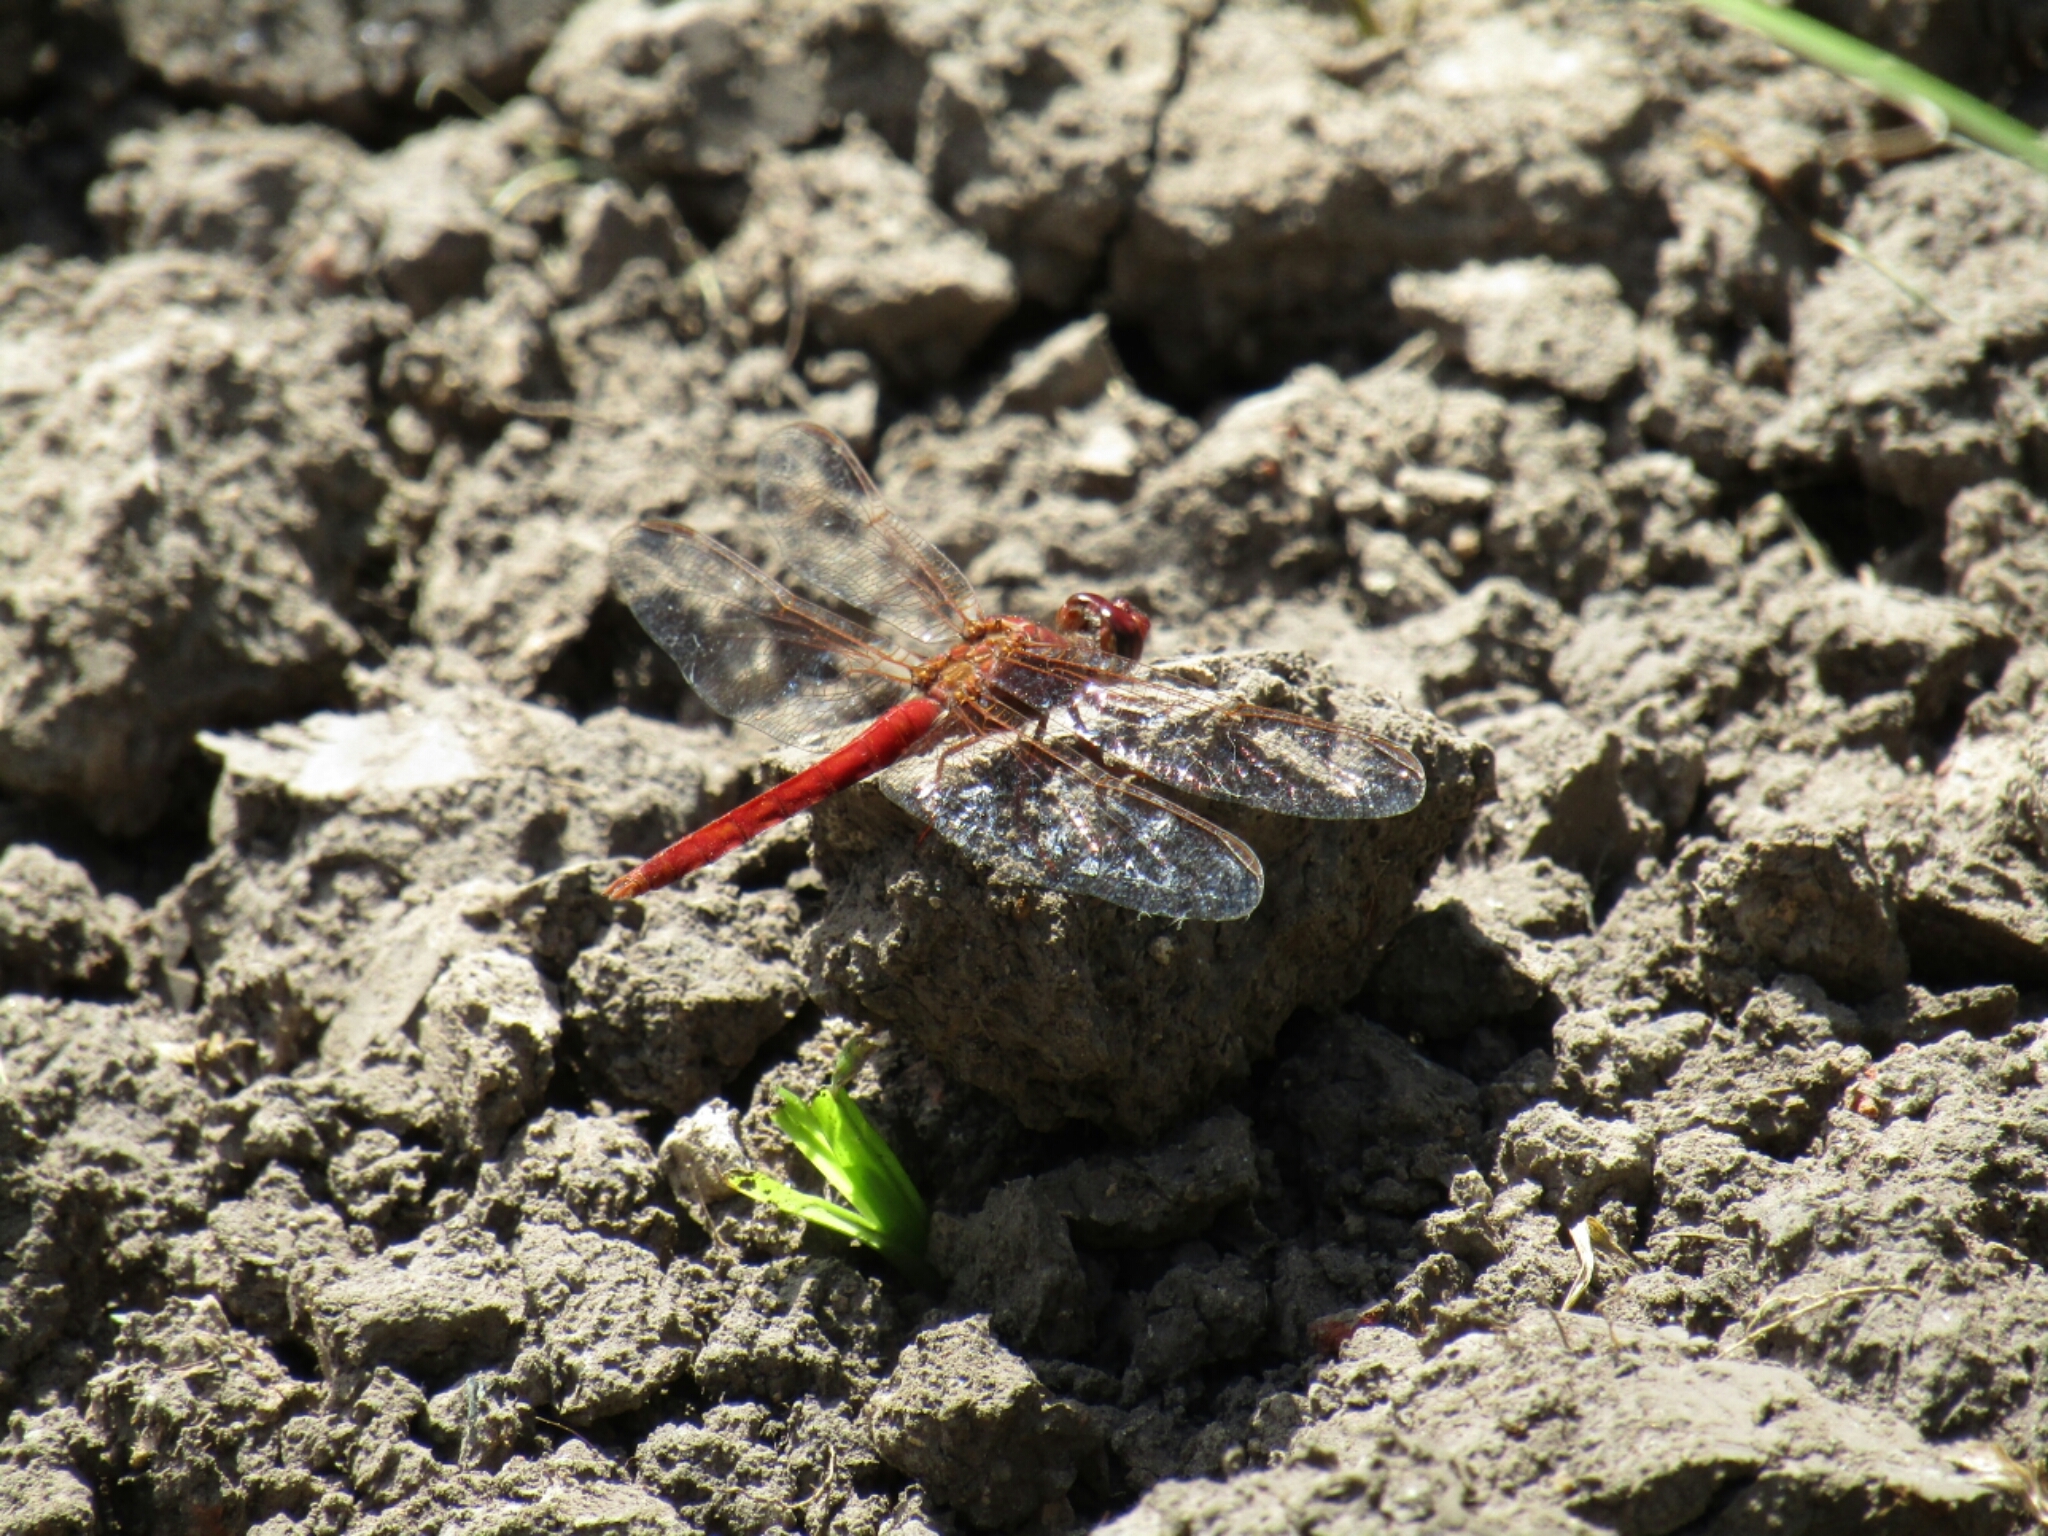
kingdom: Animalia
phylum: Arthropoda
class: Insecta
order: Odonata
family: Libellulidae
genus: Orthemis
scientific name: Orthemis nodiplaga
